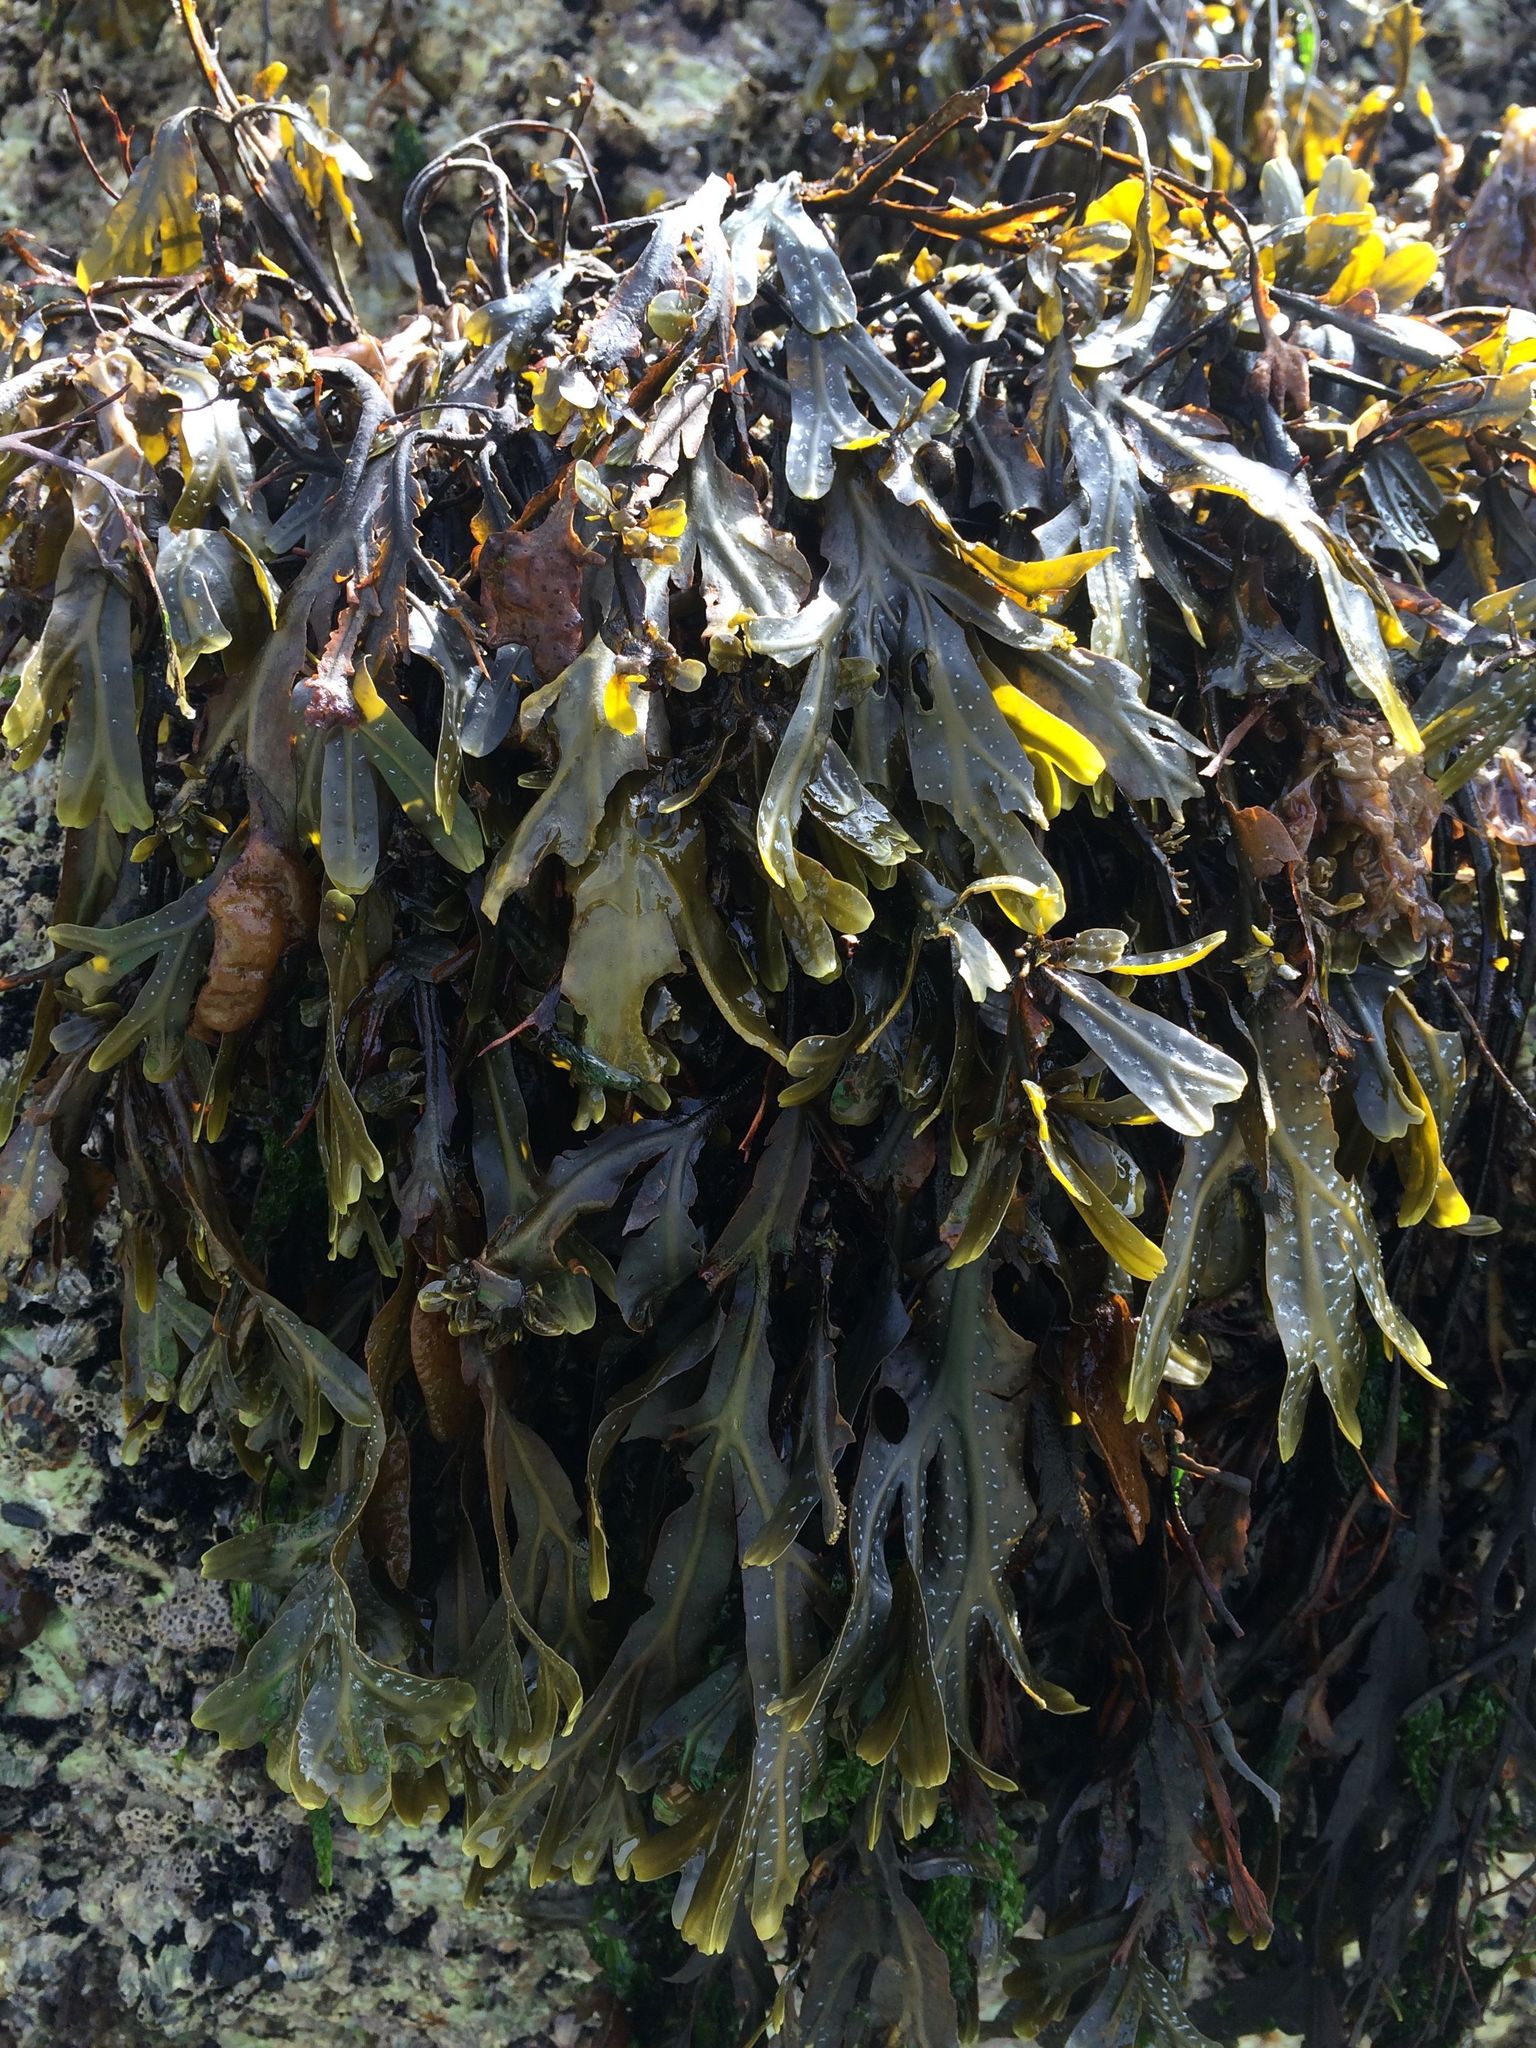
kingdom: Chromista
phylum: Ochrophyta
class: Phaeophyceae
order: Fucales
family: Fucaceae
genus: Fucus
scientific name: Fucus spiralis
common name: Spiral wrack
